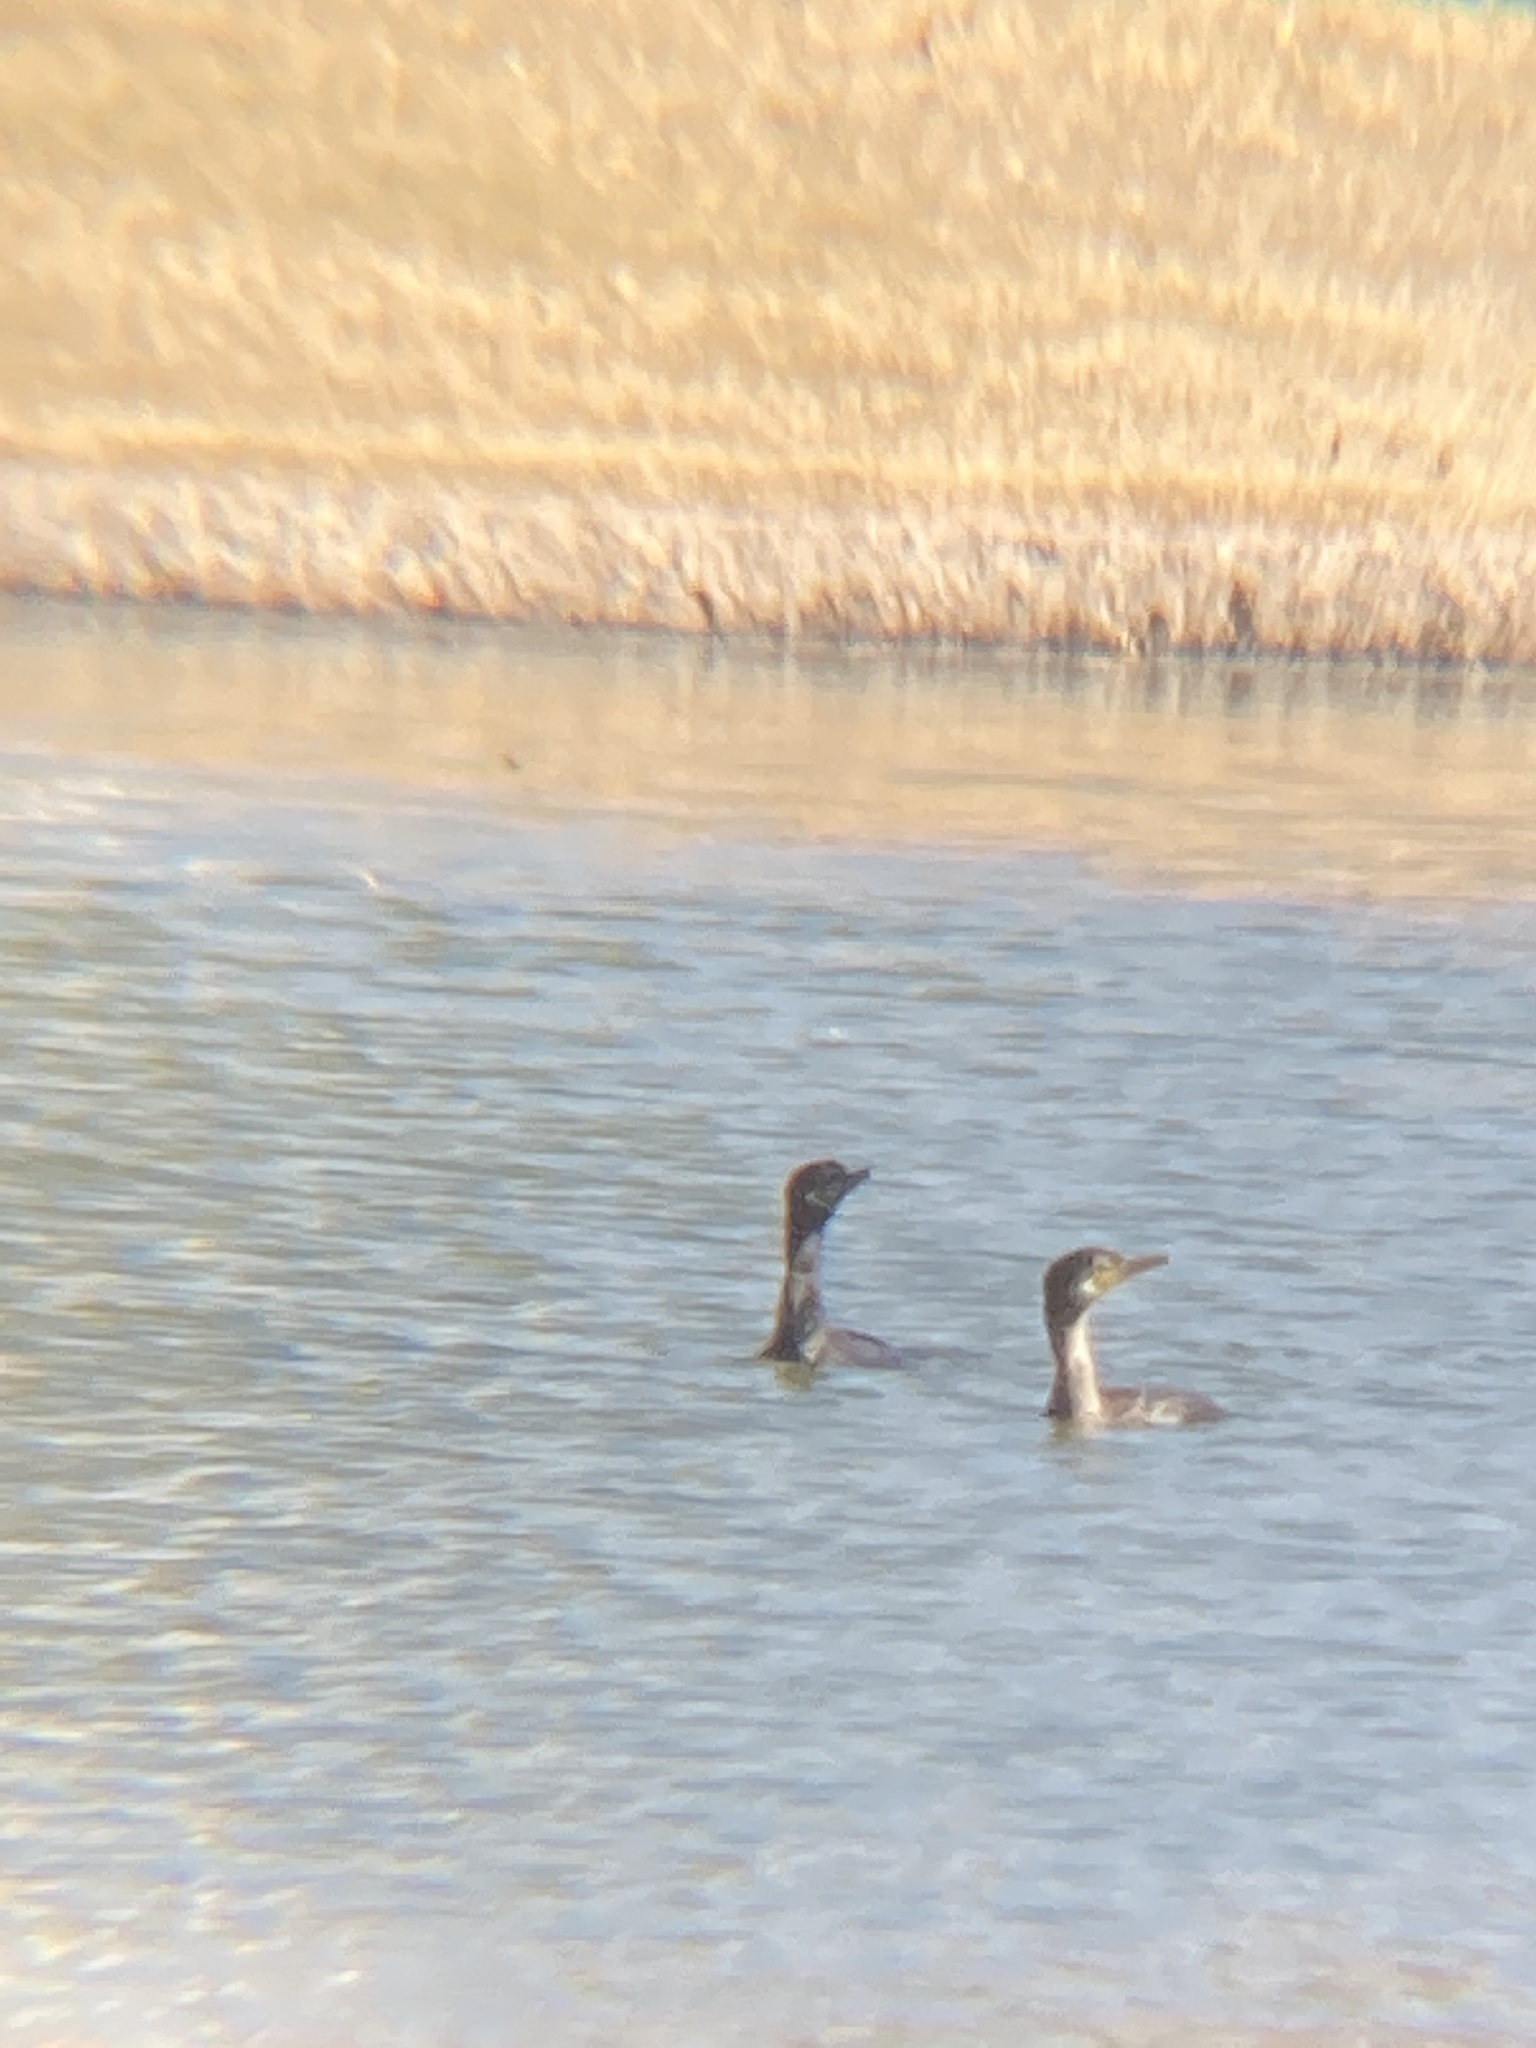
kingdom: Animalia
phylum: Chordata
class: Aves
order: Suliformes
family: Phalacrocoracidae
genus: Phalacrocorax
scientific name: Phalacrocorax brasilianus
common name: Neotropic cormorant
